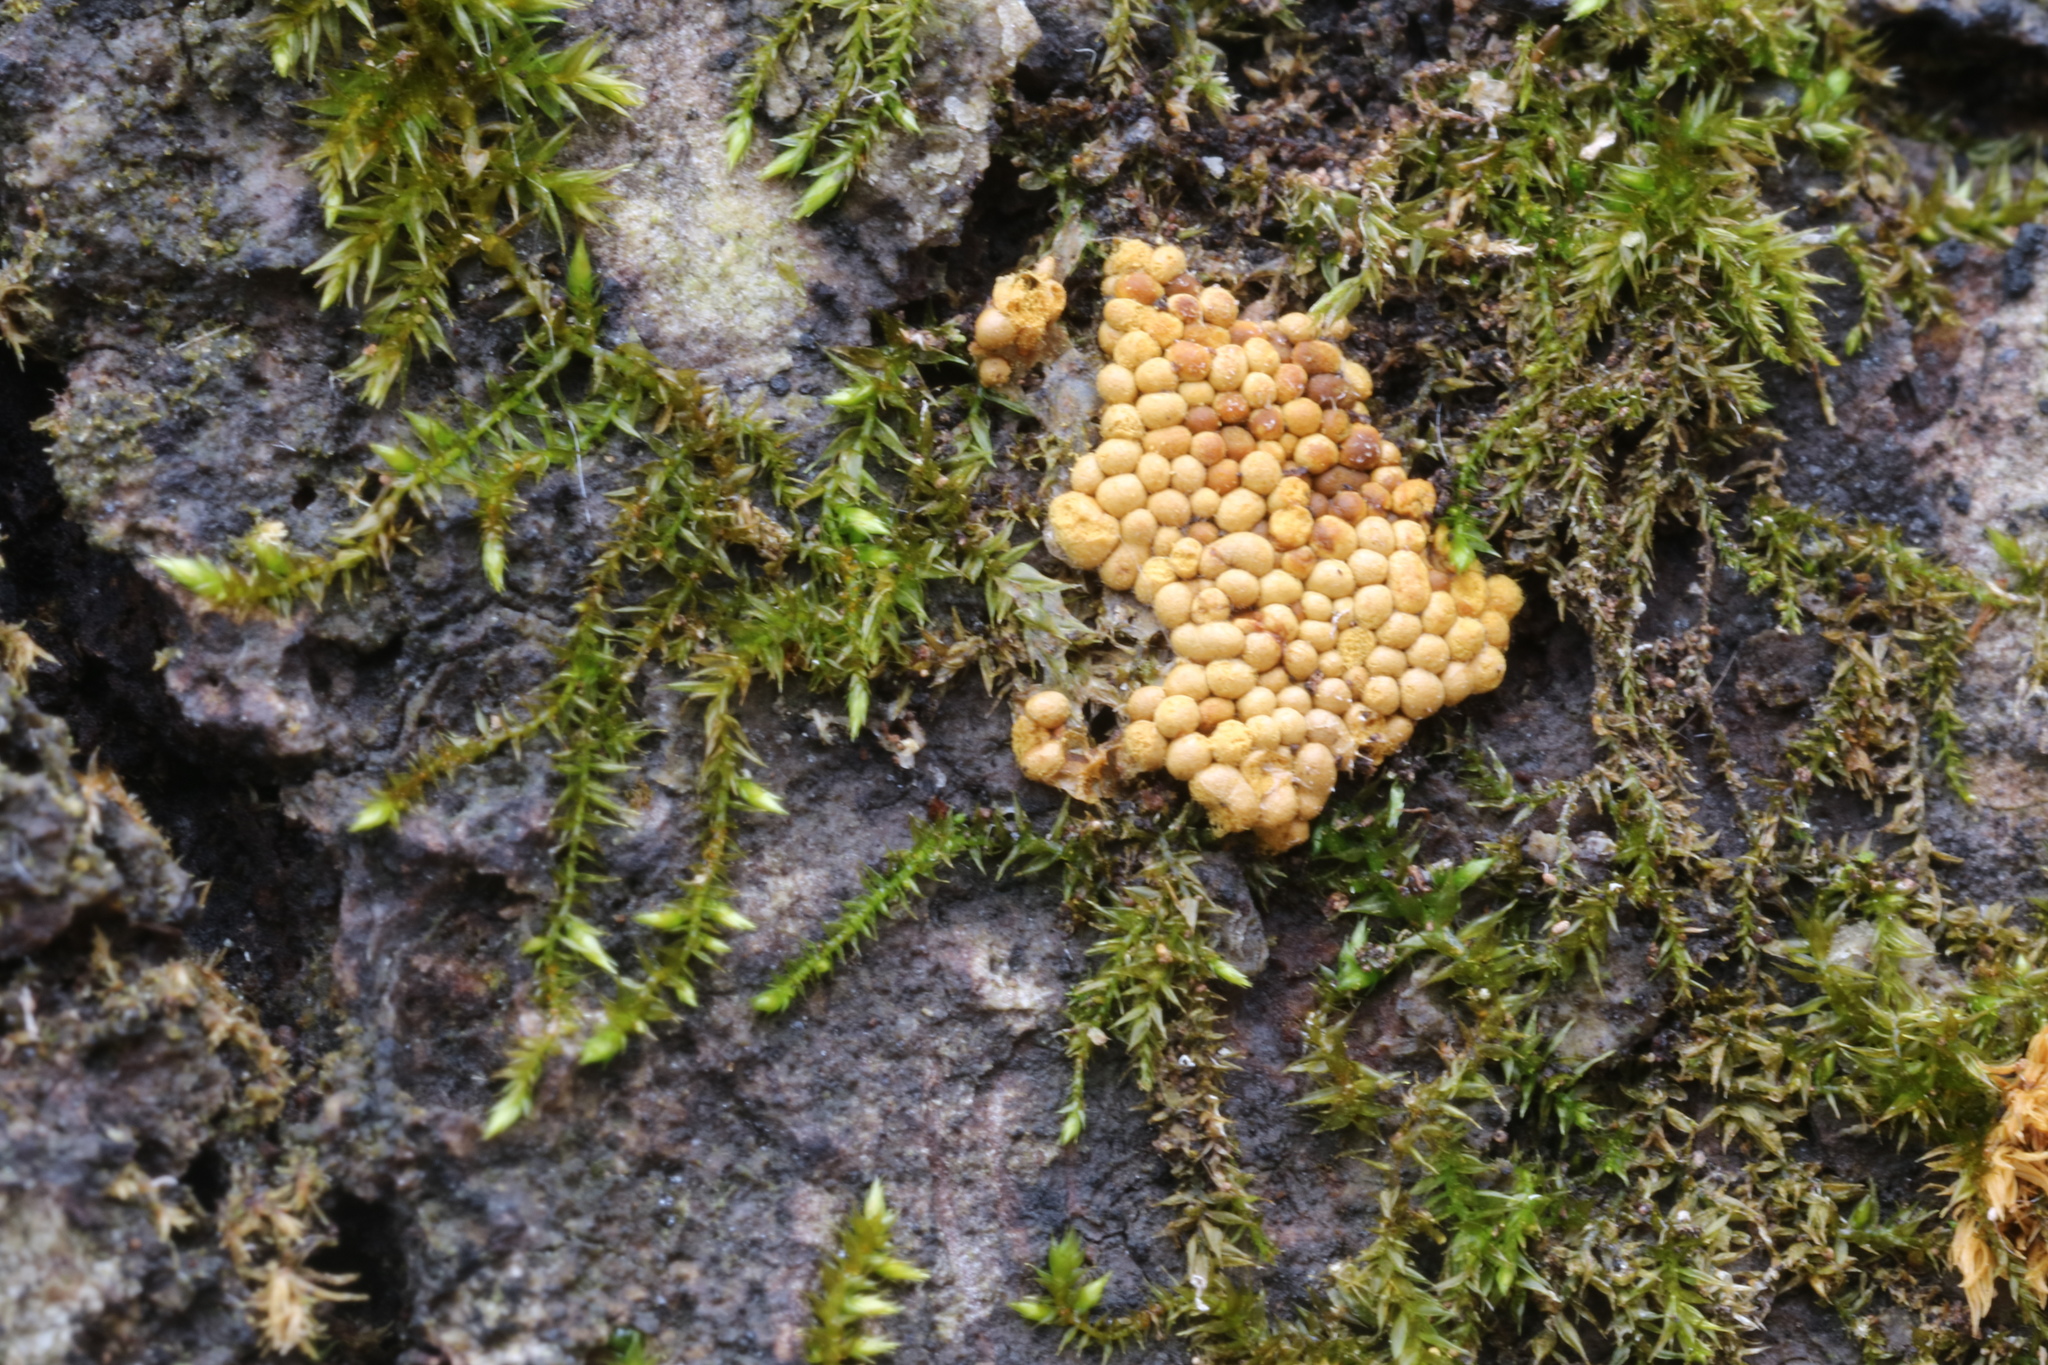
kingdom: Protozoa
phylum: Mycetozoa
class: Myxomycetes
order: Trichiales
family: Trichiaceae
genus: Oligonema
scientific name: Oligonema persimile
